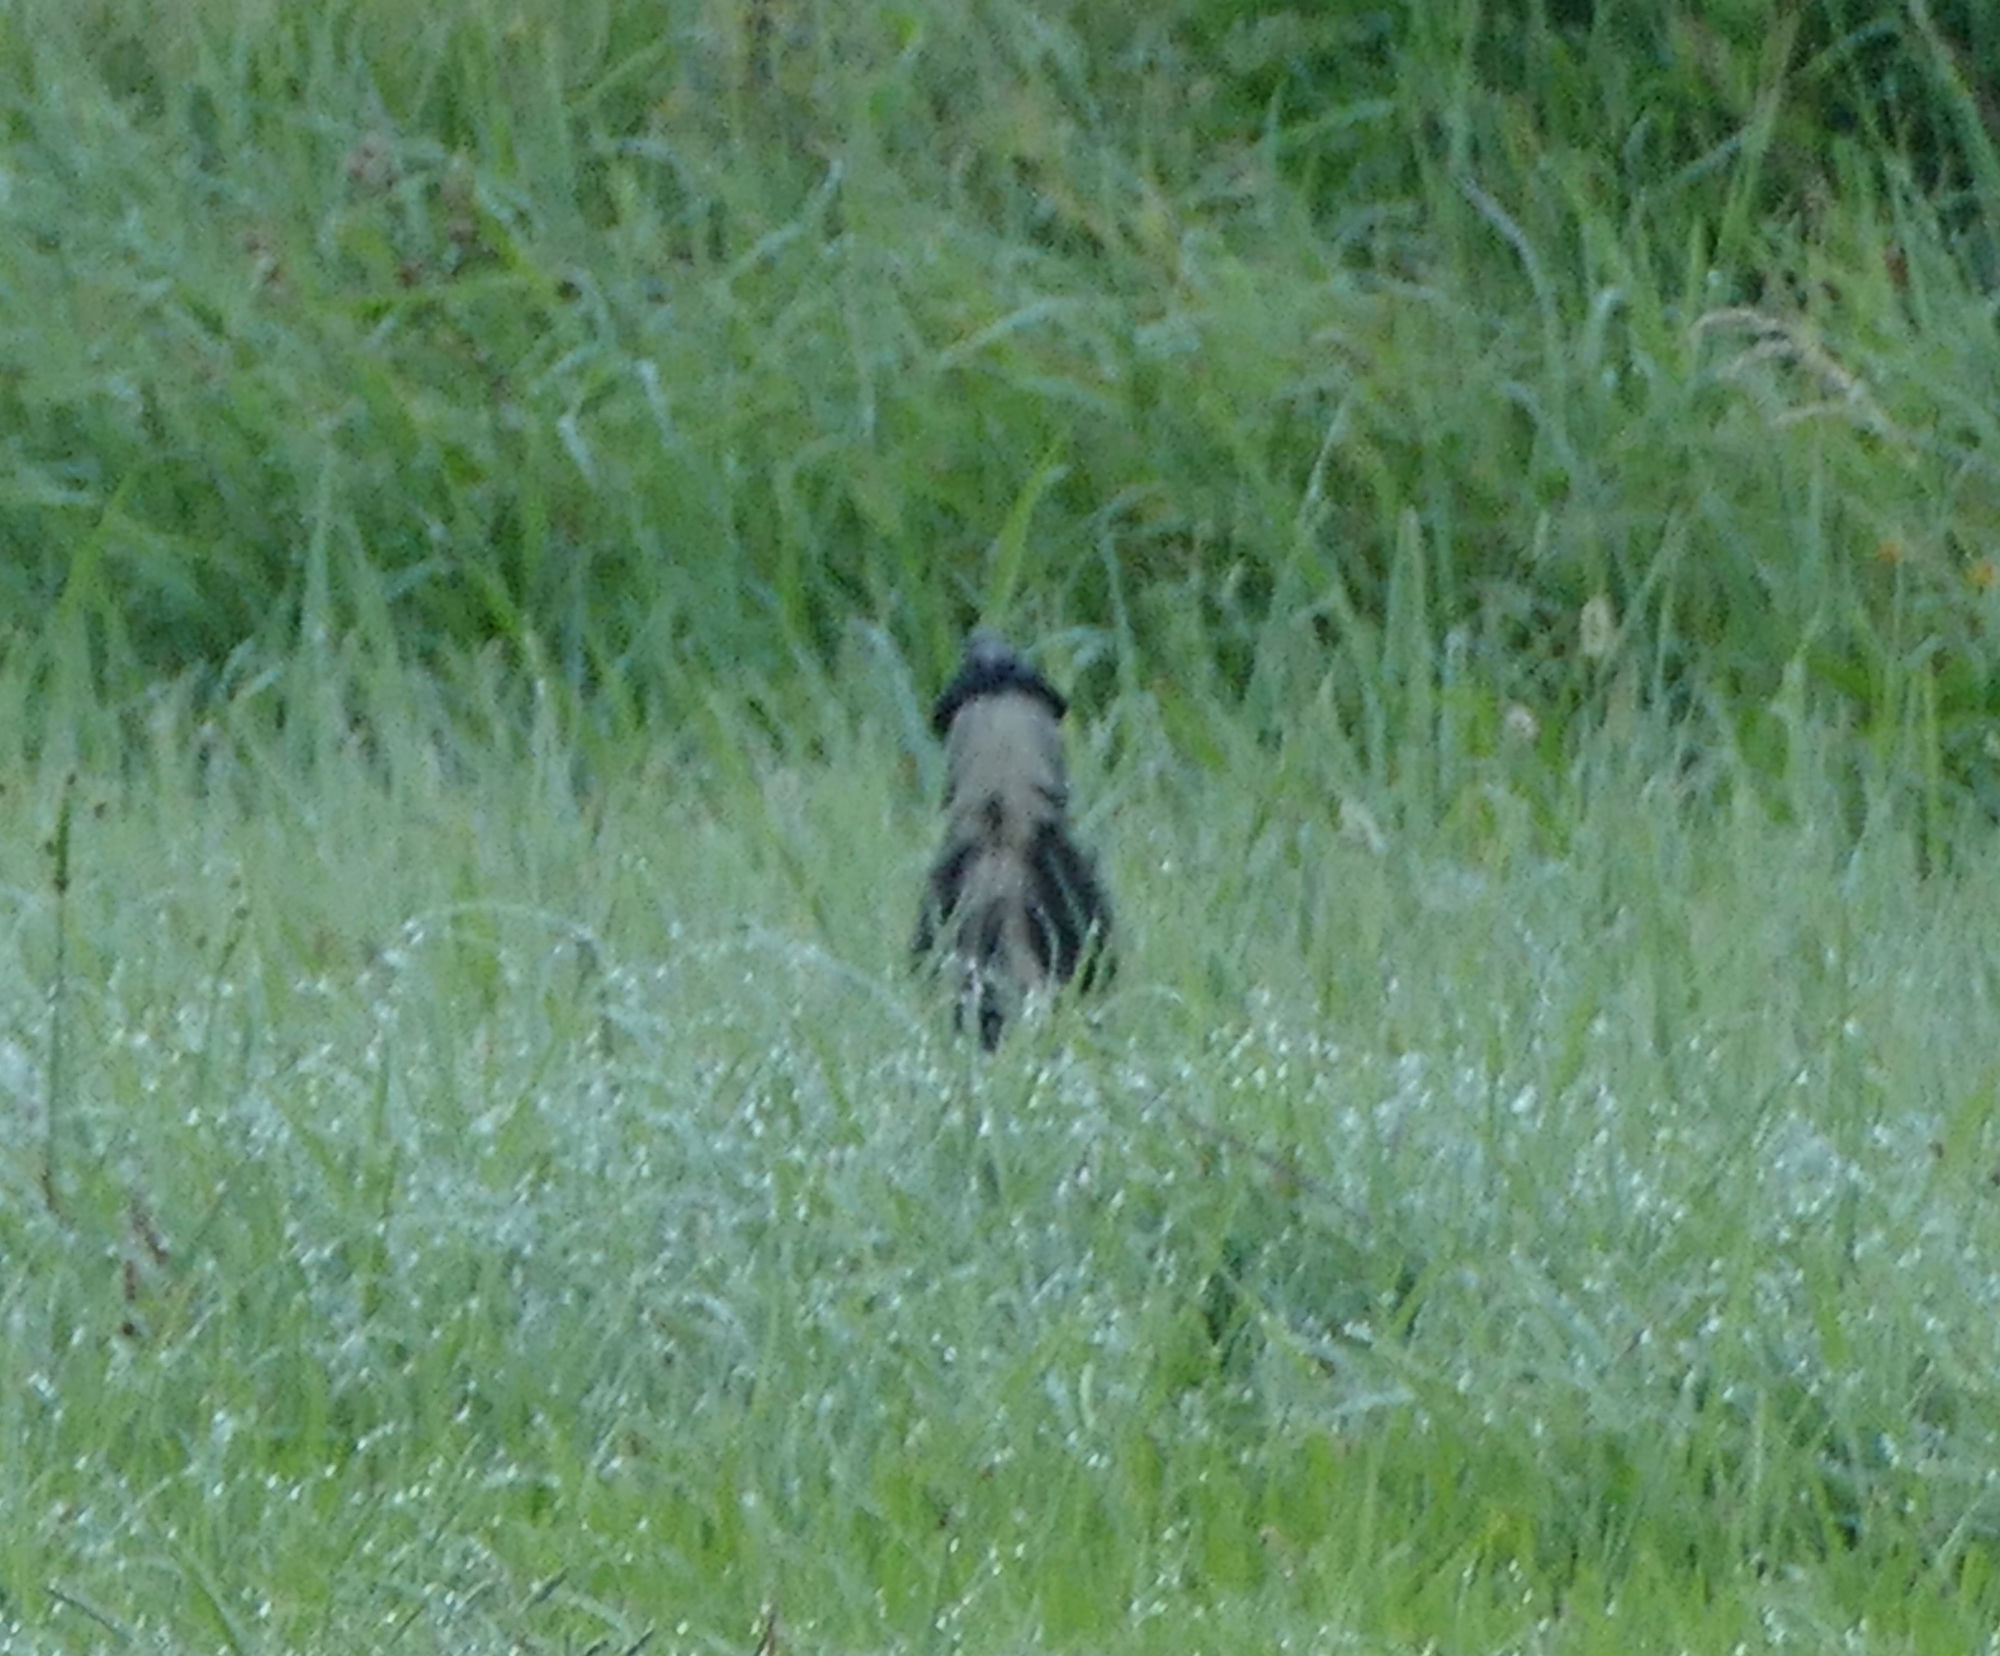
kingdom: Animalia
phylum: Chordata
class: Mammalia
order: Carnivora
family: Mephitidae
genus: Mephitis
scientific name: Mephitis mephitis
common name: Striped skunk
